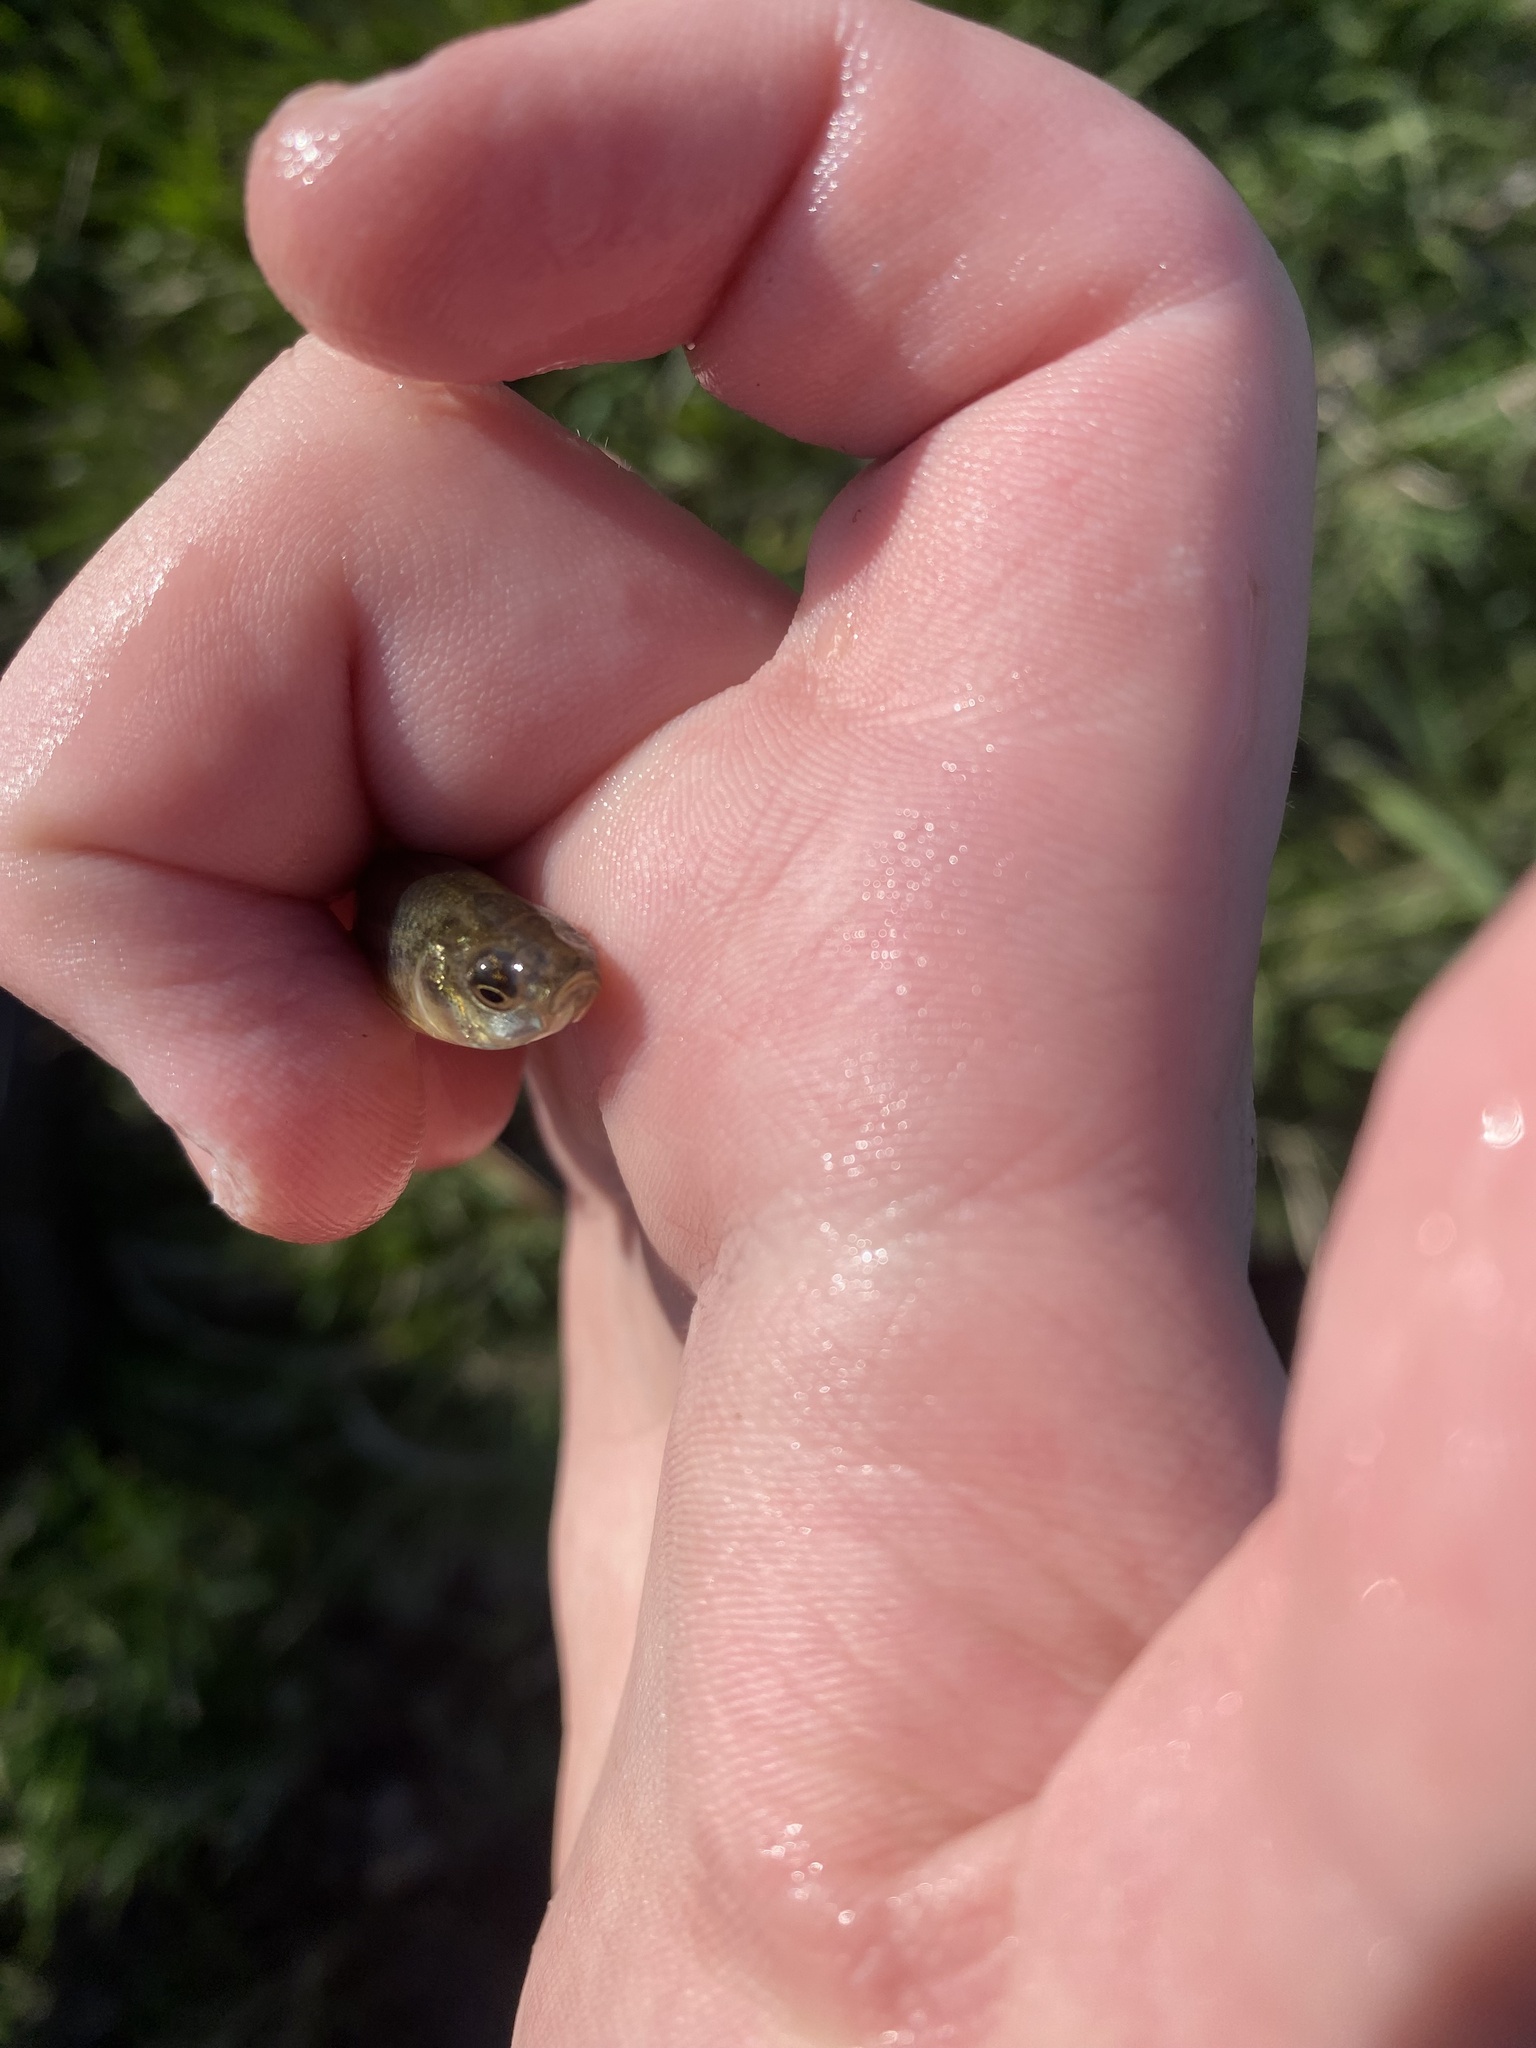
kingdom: Animalia
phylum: Chordata
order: Cypriniformes
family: Cyprinidae
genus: Pimephales
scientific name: Pimephales promelas
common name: Fathead minnow
